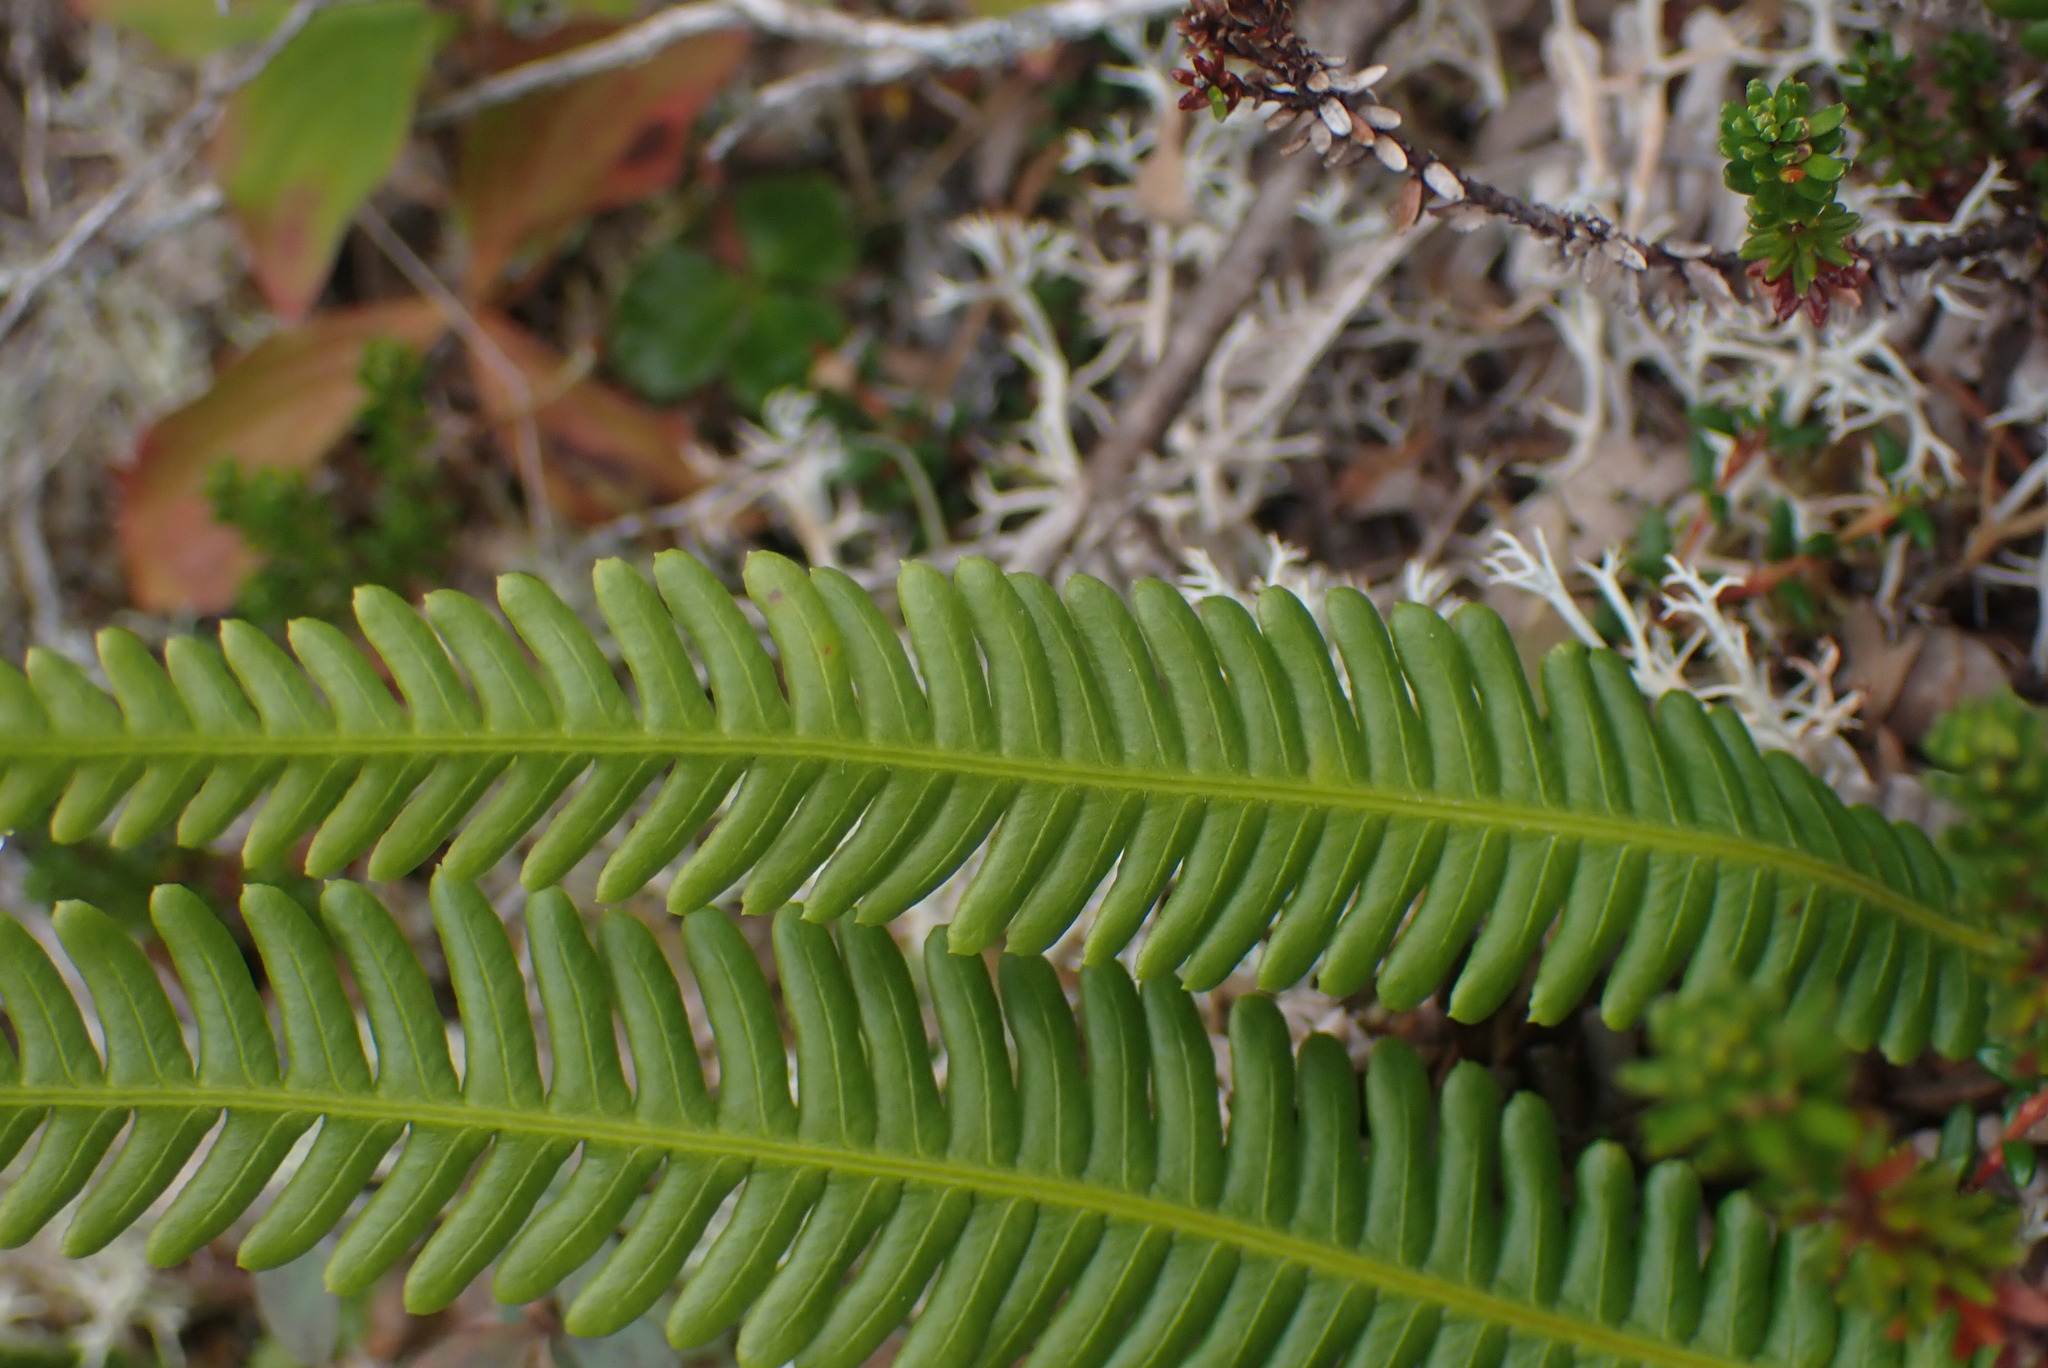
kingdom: Plantae
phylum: Tracheophyta
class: Polypodiopsida
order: Polypodiales
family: Blechnaceae
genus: Struthiopteris
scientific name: Struthiopteris spicant
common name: Deer fern
